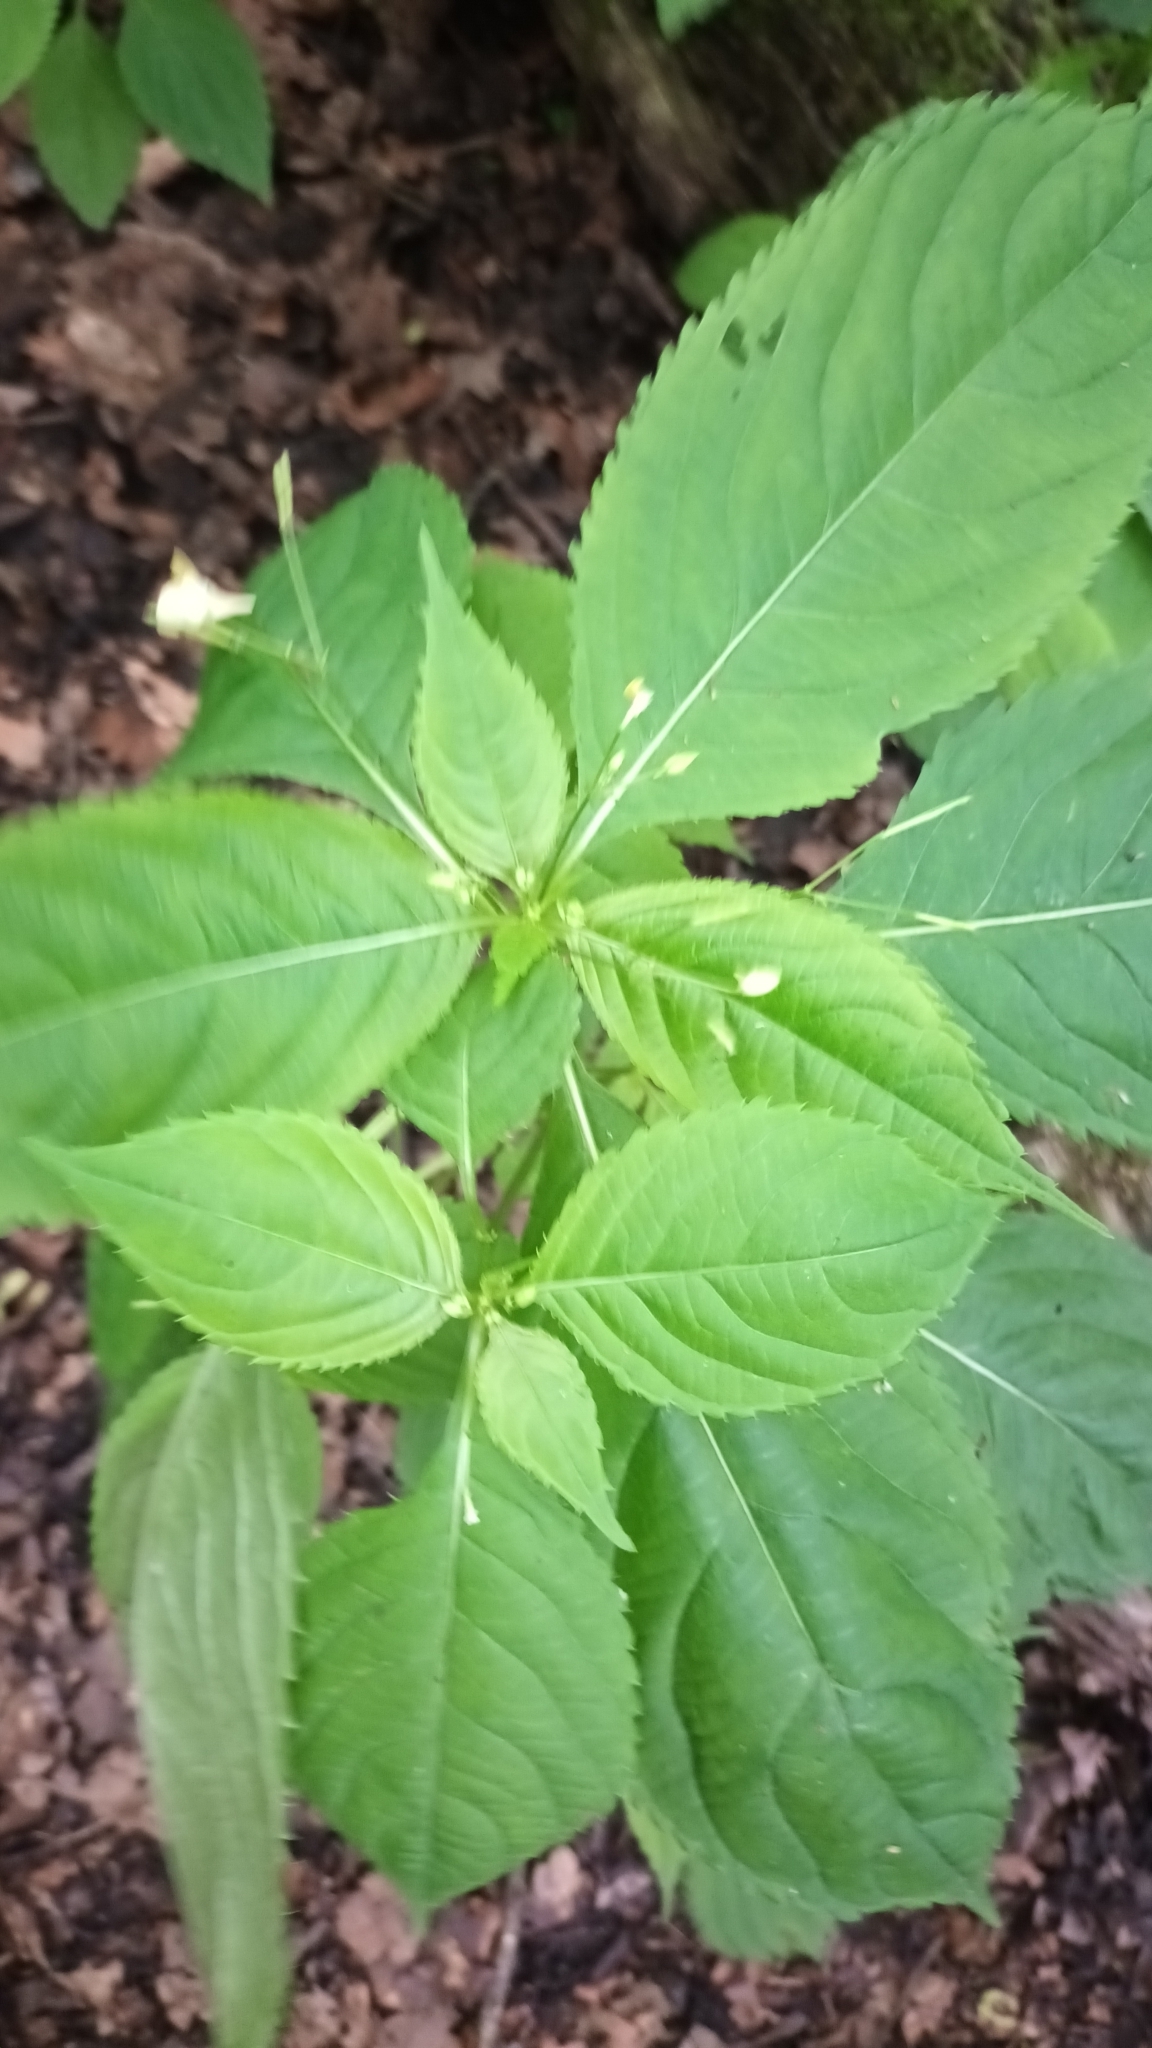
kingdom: Plantae
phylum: Tracheophyta
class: Magnoliopsida
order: Ericales
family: Balsaminaceae
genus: Impatiens
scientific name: Impatiens parviflora
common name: Small balsam
